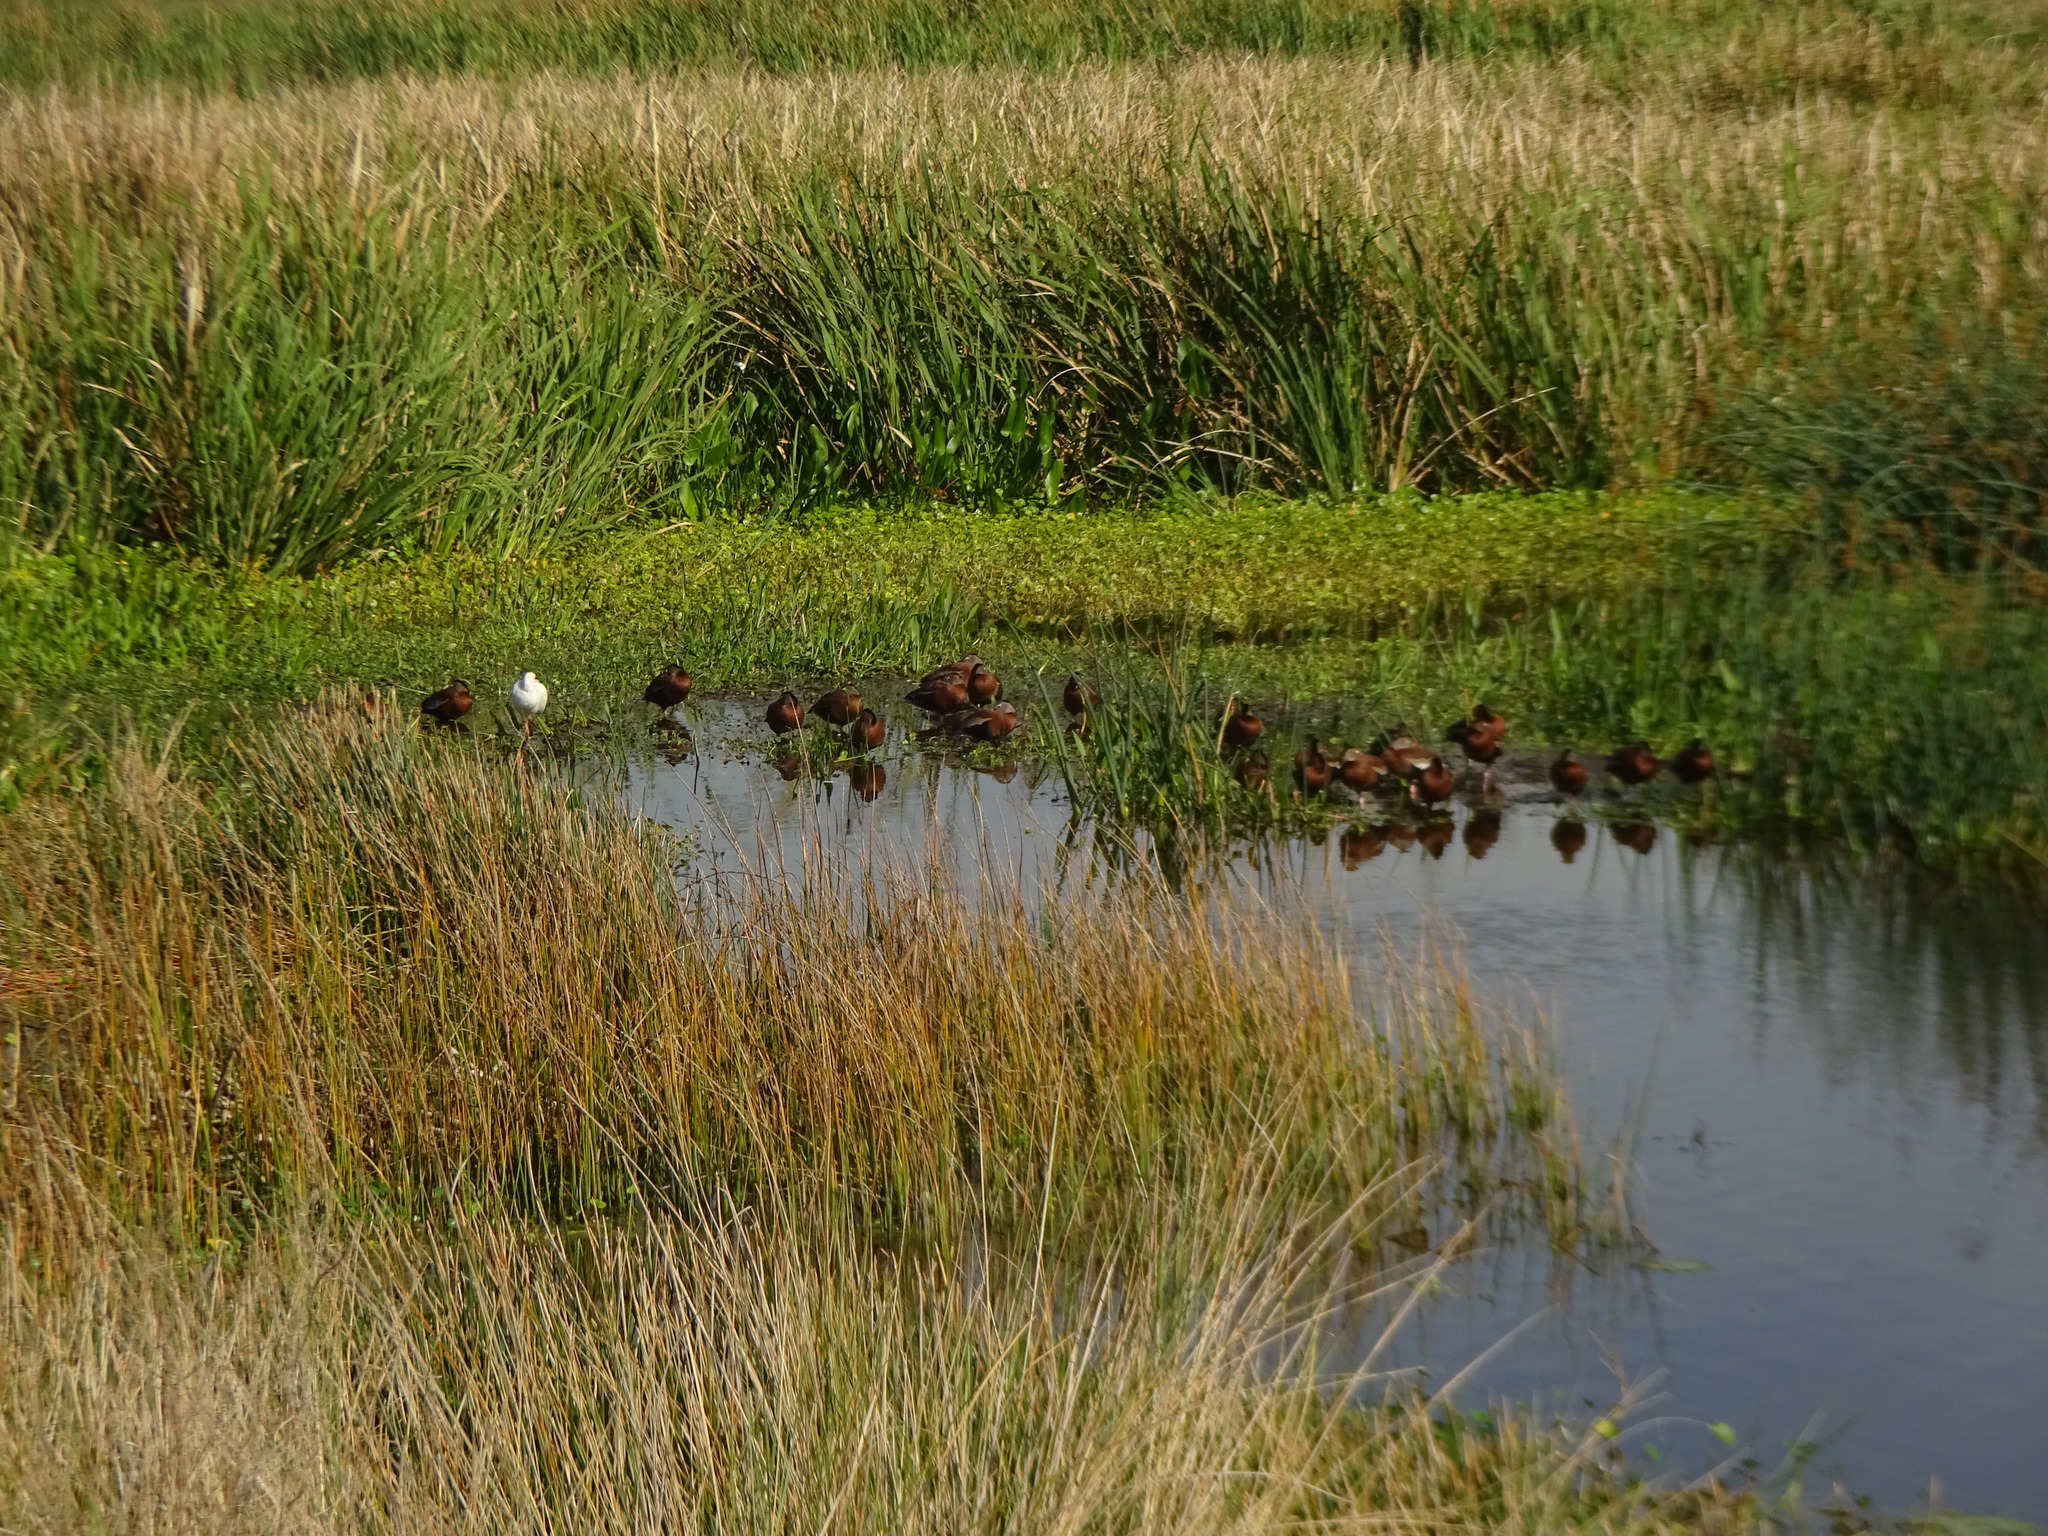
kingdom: Animalia
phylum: Chordata
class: Aves
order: Anseriformes
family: Anatidae
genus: Dendrocygna
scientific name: Dendrocygna autumnalis
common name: Black-bellied whistling duck
